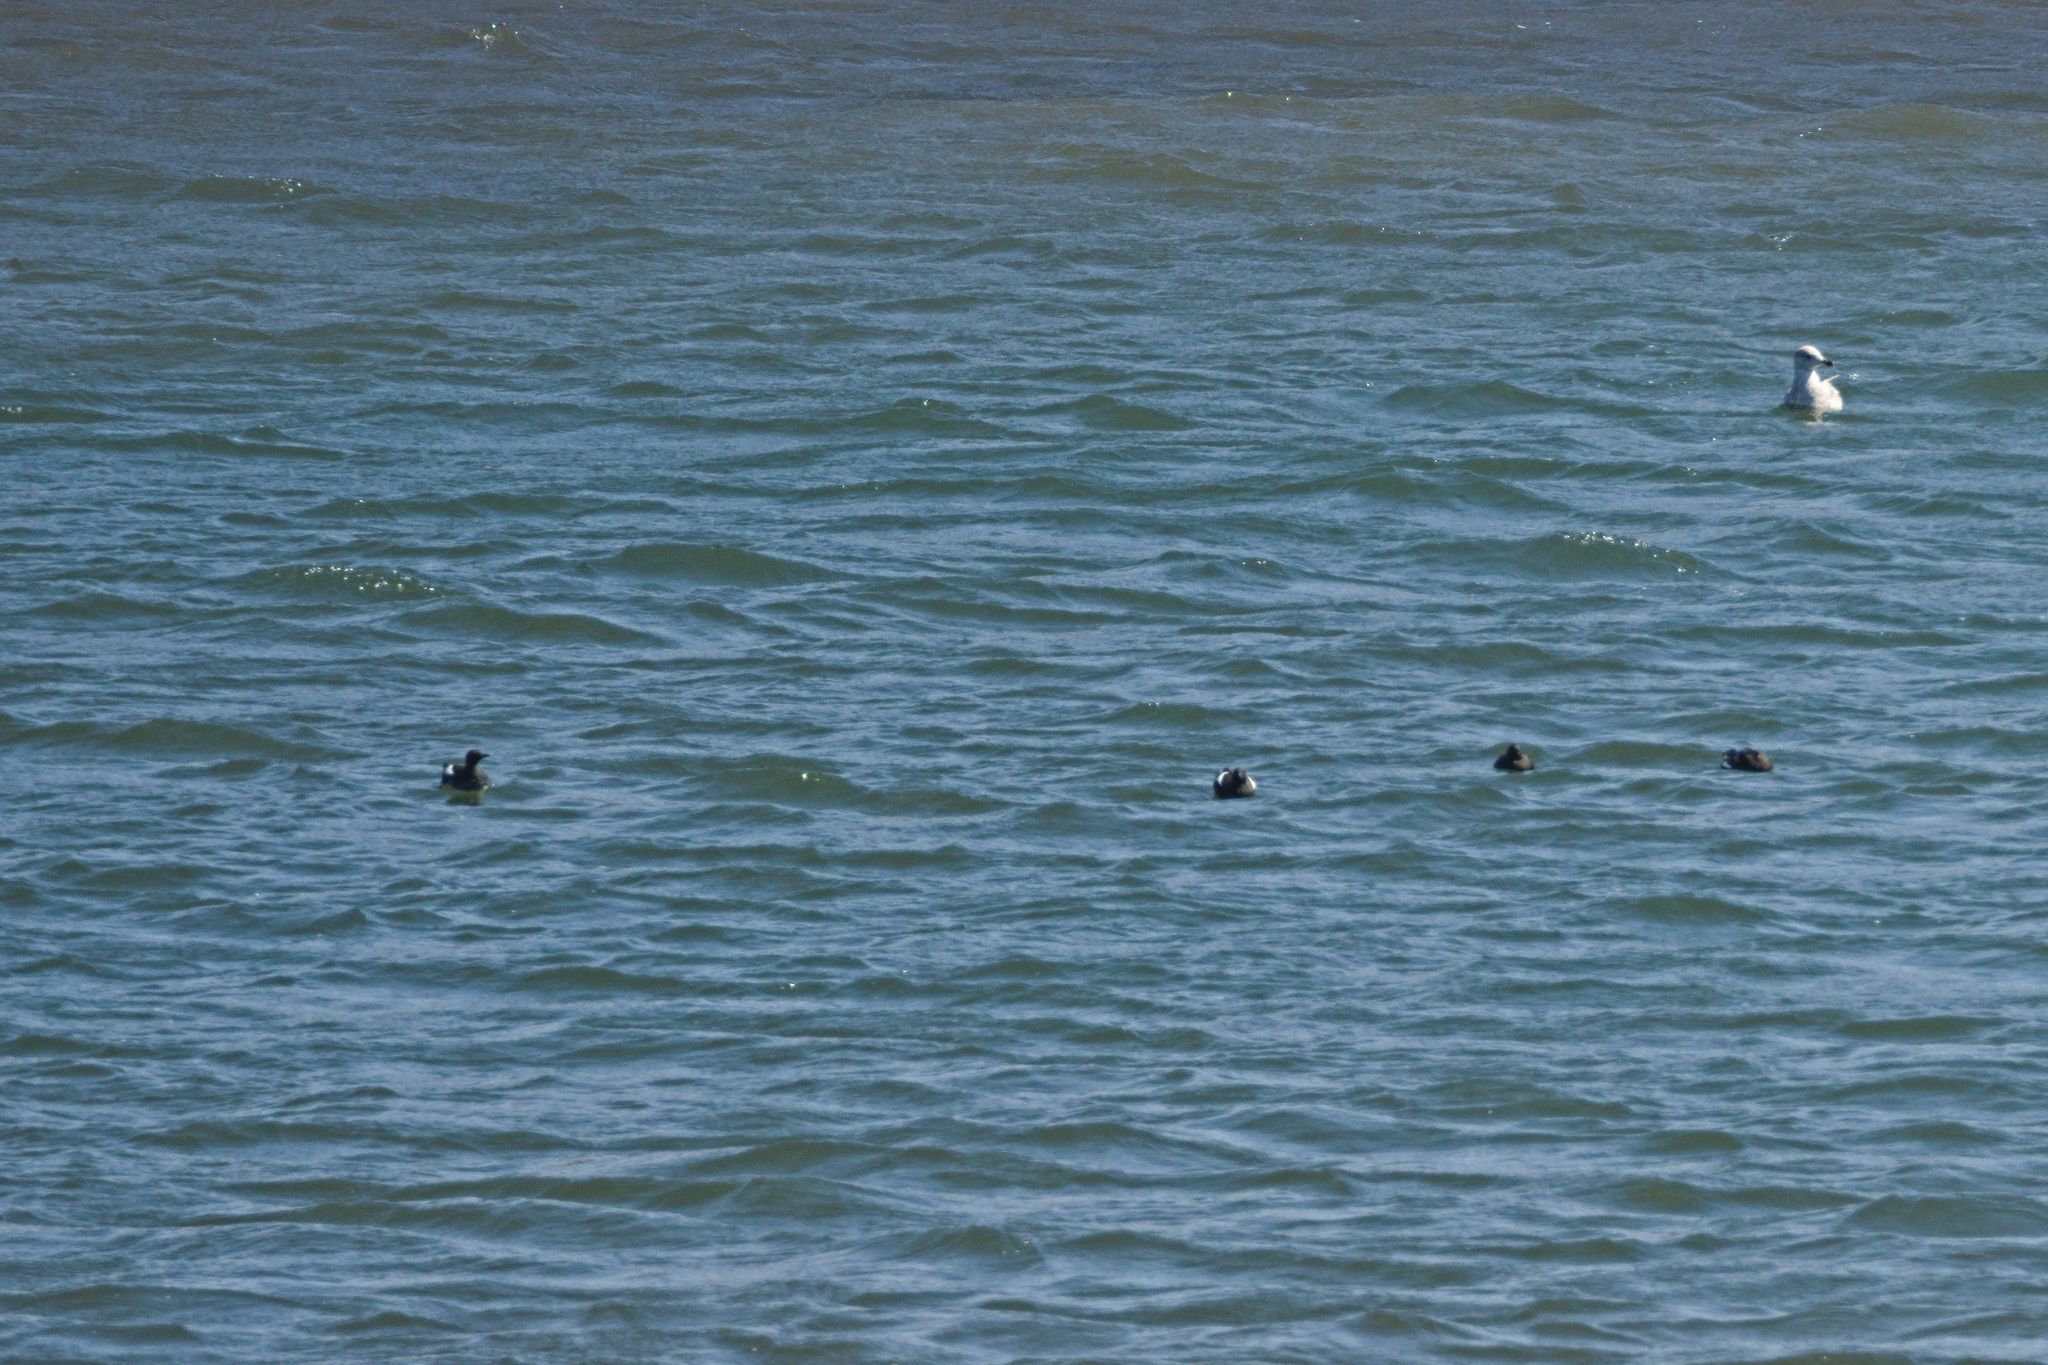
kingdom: Animalia
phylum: Chordata
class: Aves
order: Charadriiformes
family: Alcidae
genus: Cepphus
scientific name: Cepphus grylle
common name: Black guillemot
